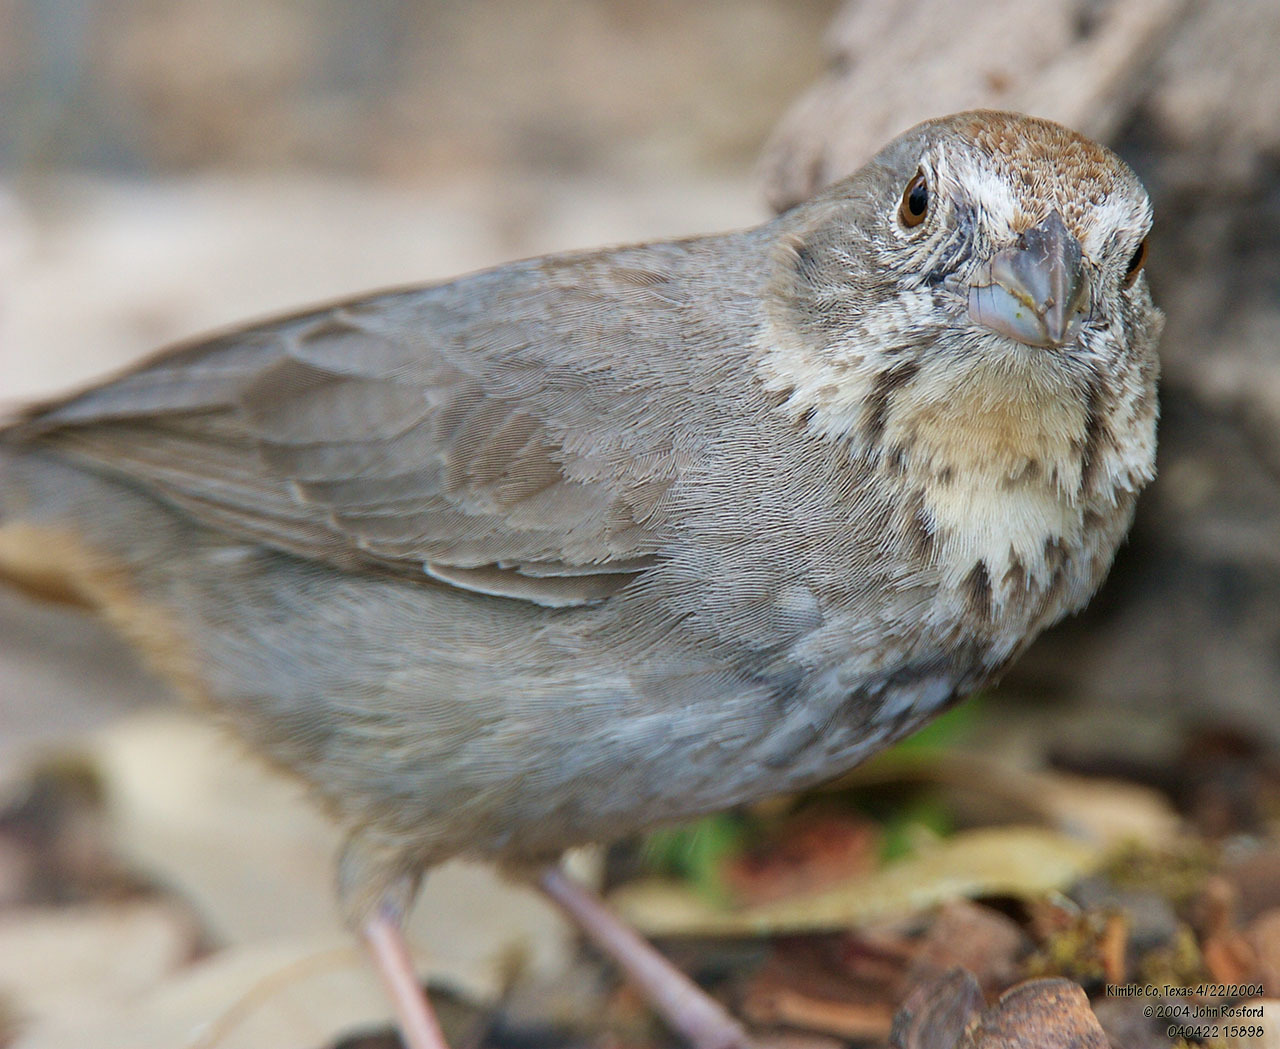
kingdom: Animalia
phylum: Chordata
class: Aves
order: Passeriformes
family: Passerellidae
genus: Melozone
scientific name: Melozone fusca
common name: Canyon towhee
